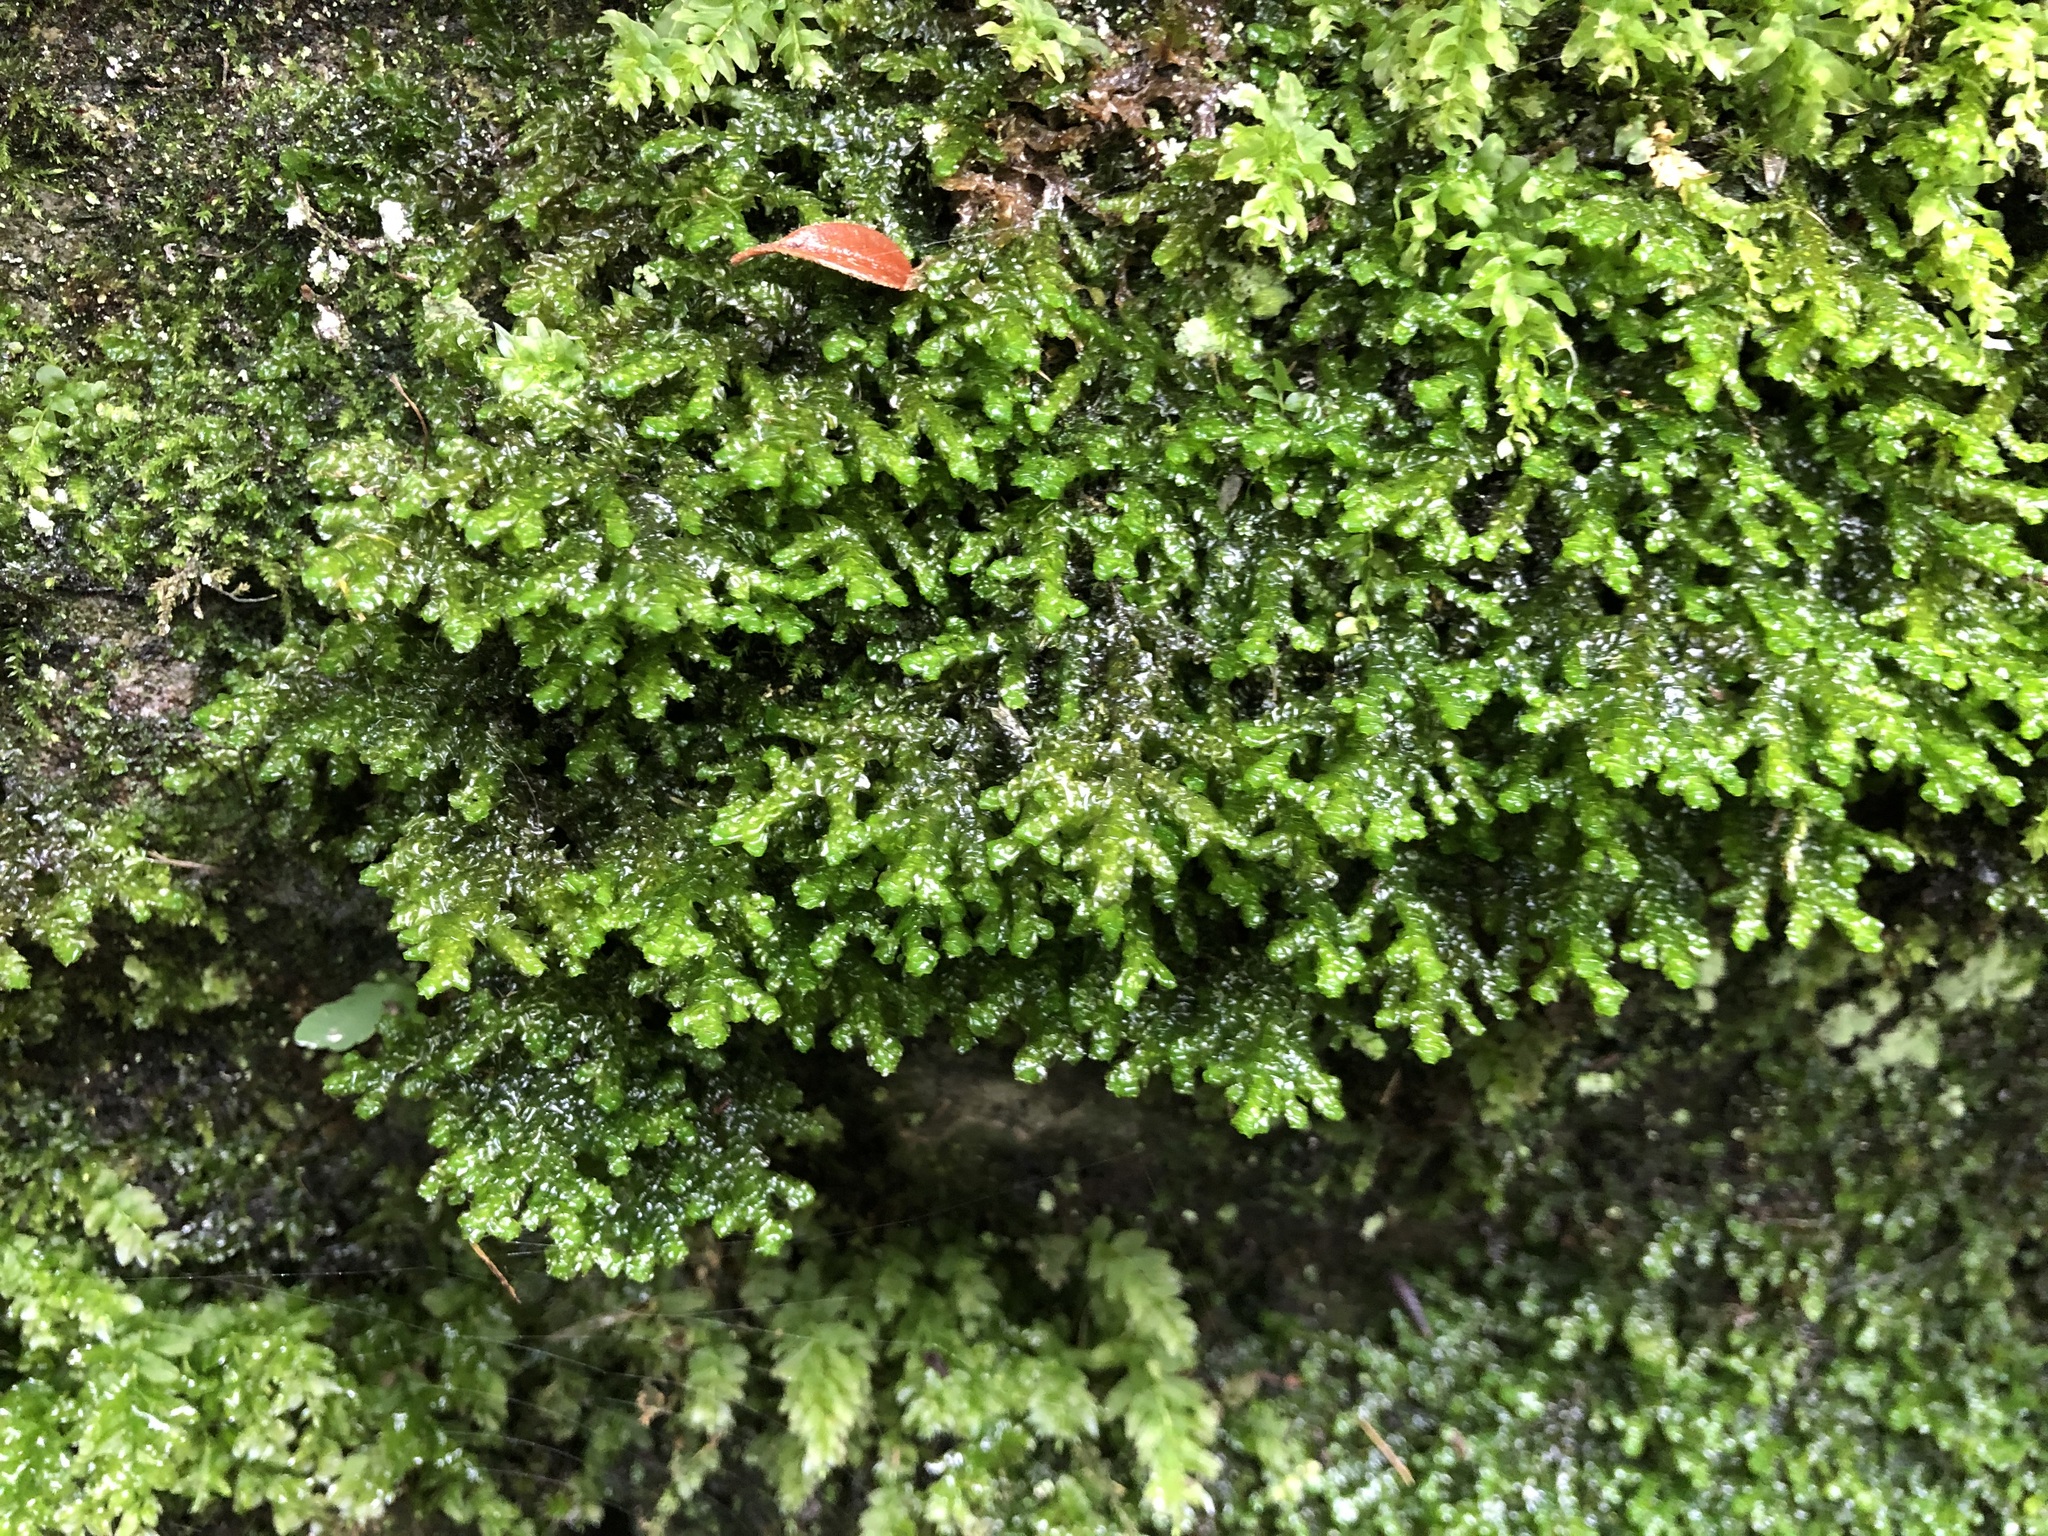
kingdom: Plantae
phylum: Marchantiophyta
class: Jungermanniopsida
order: Porellales
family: Porellaceae
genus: Porella
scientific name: Porella platyphylla
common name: Wall scalewort
